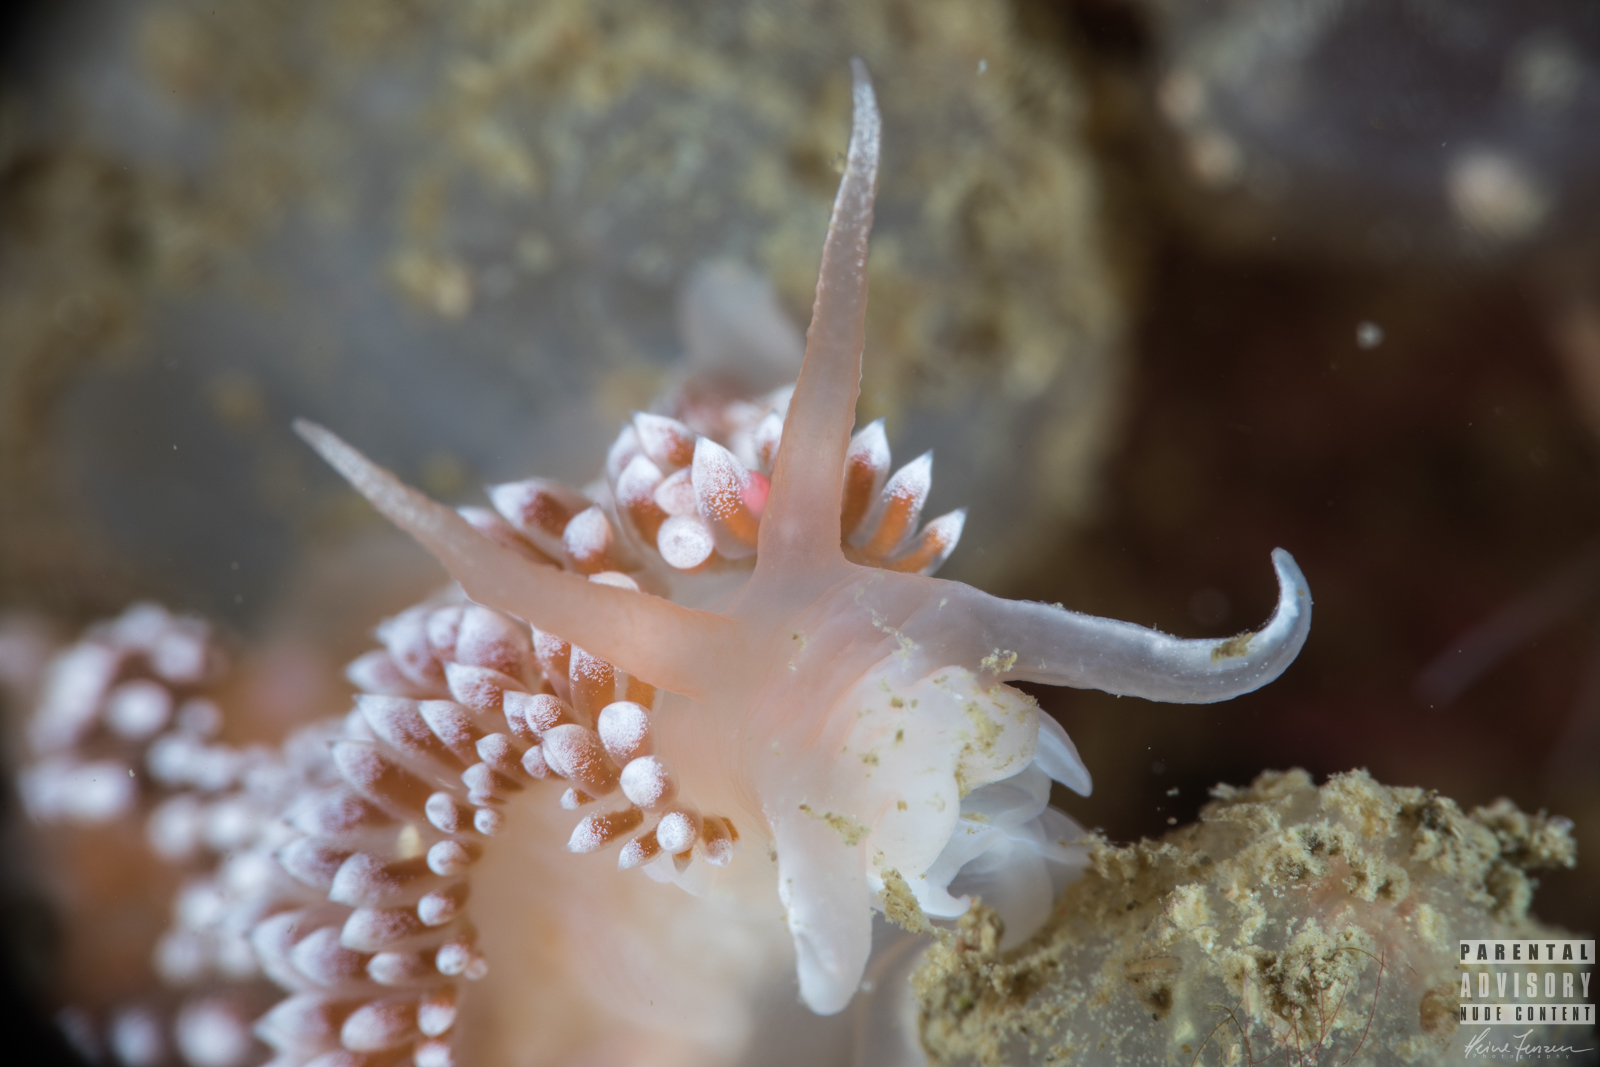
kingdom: Animalia
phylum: Mollusca
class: Gastropoda
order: Nudibranchia
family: Coryphellidae
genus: Coryphella
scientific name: Coryphella verrucosa
